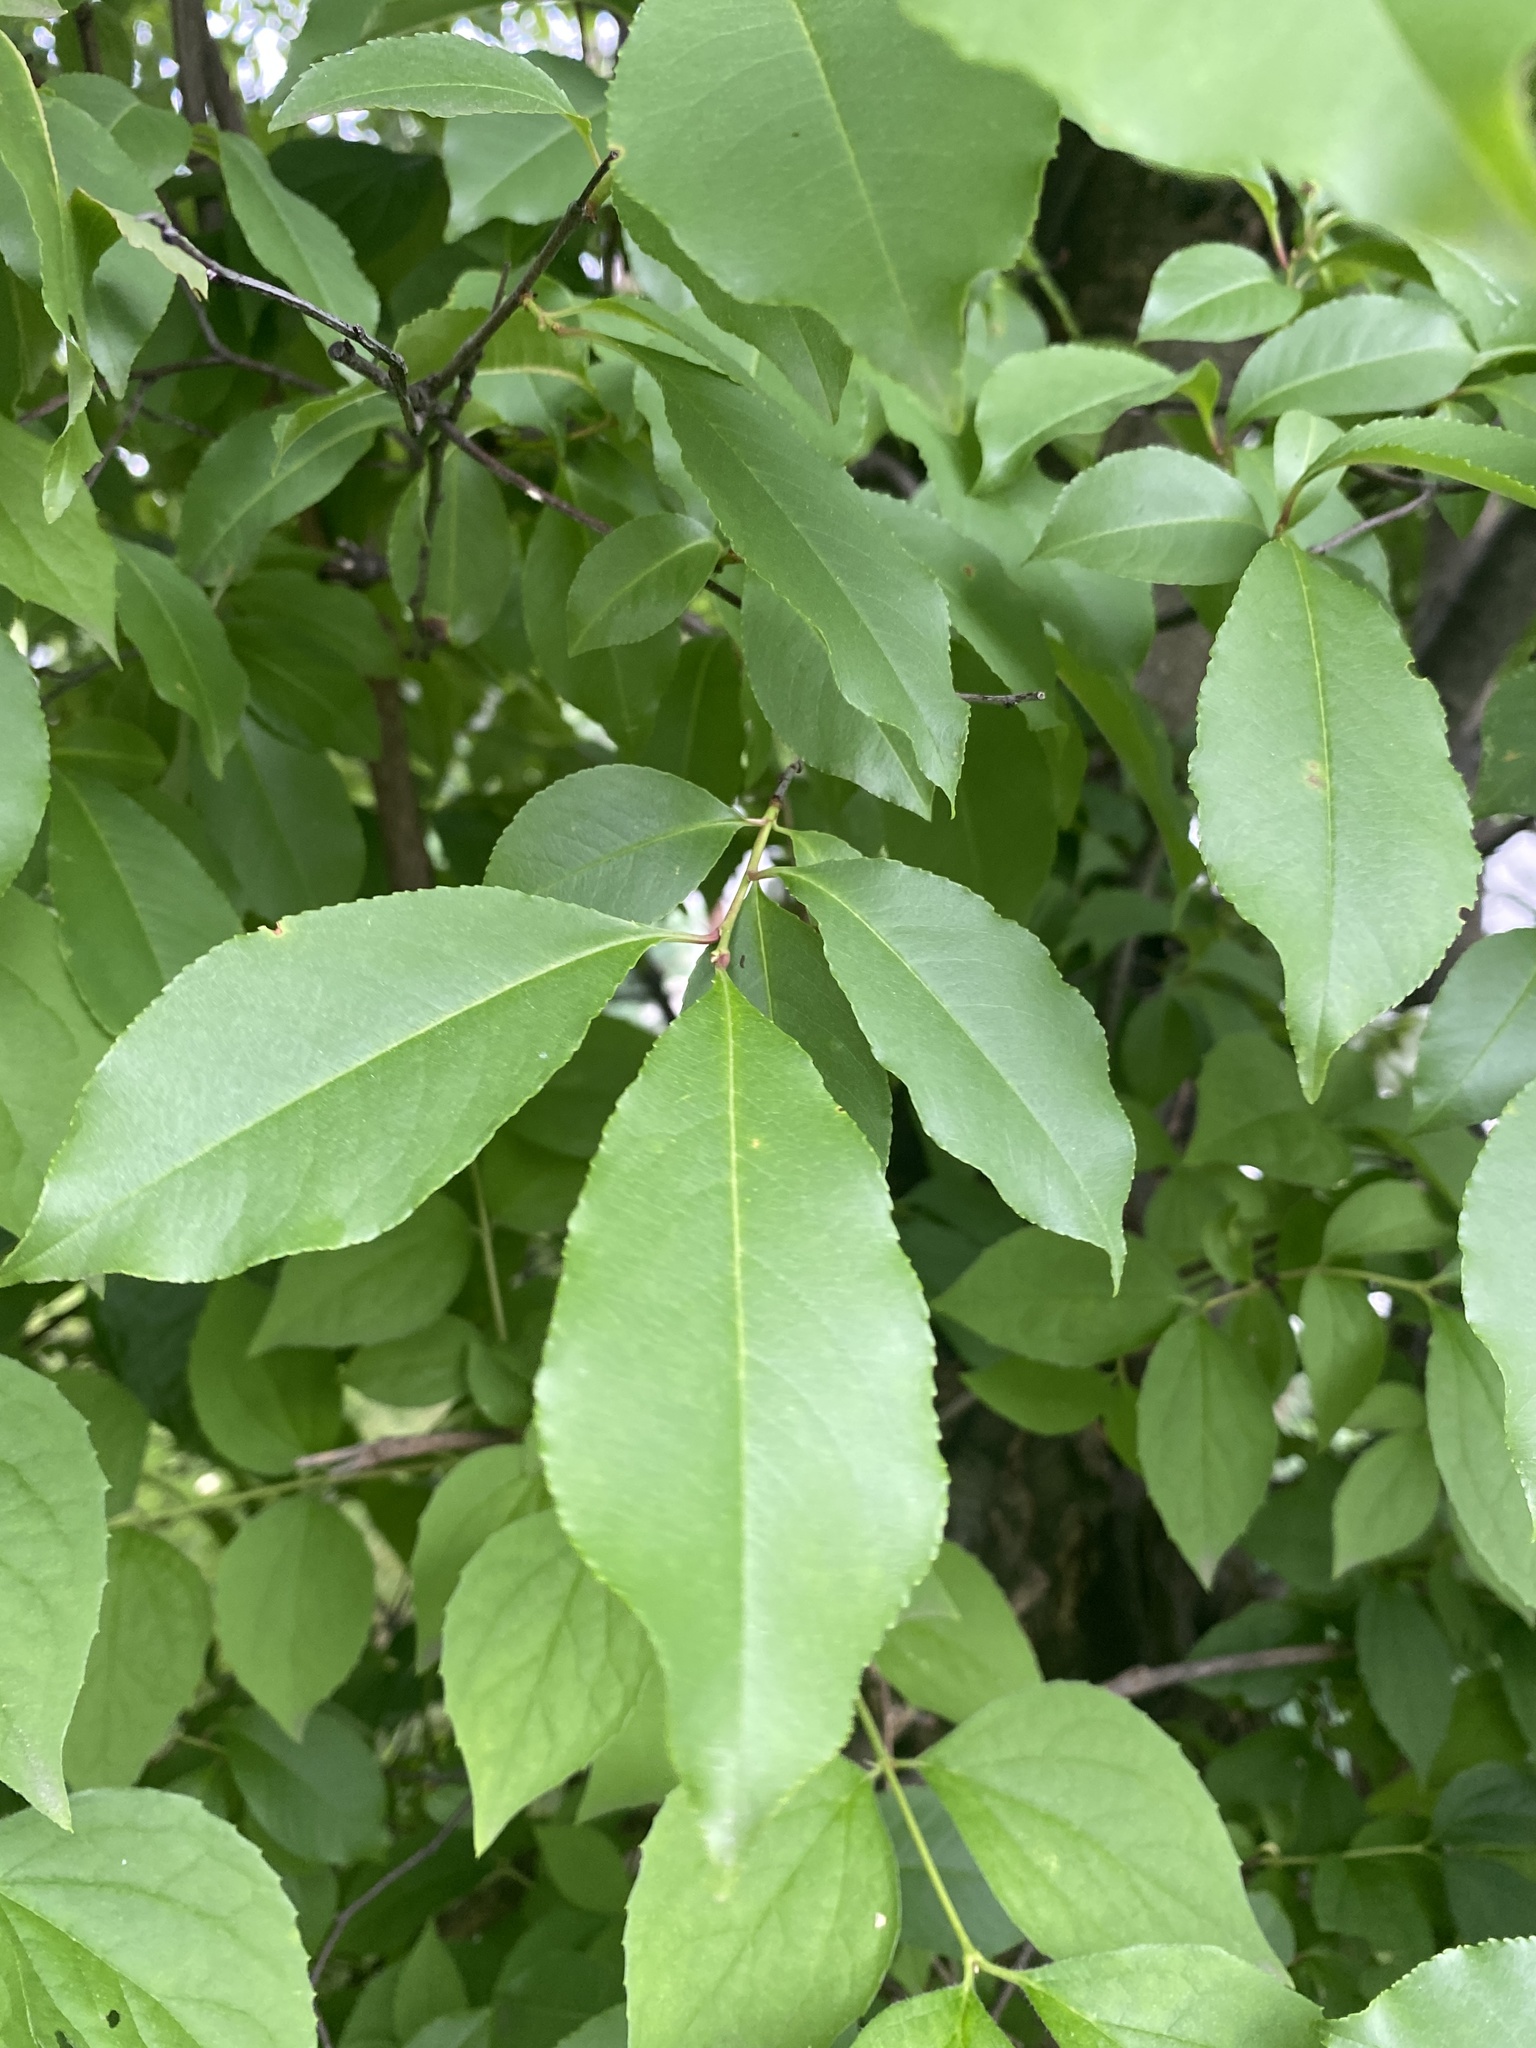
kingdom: Plantae
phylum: Tracheophyta
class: Magnoliopsida
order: Rosales
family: Rosaceae
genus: Prunus
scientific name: Prunus serotina
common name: Black cherry
